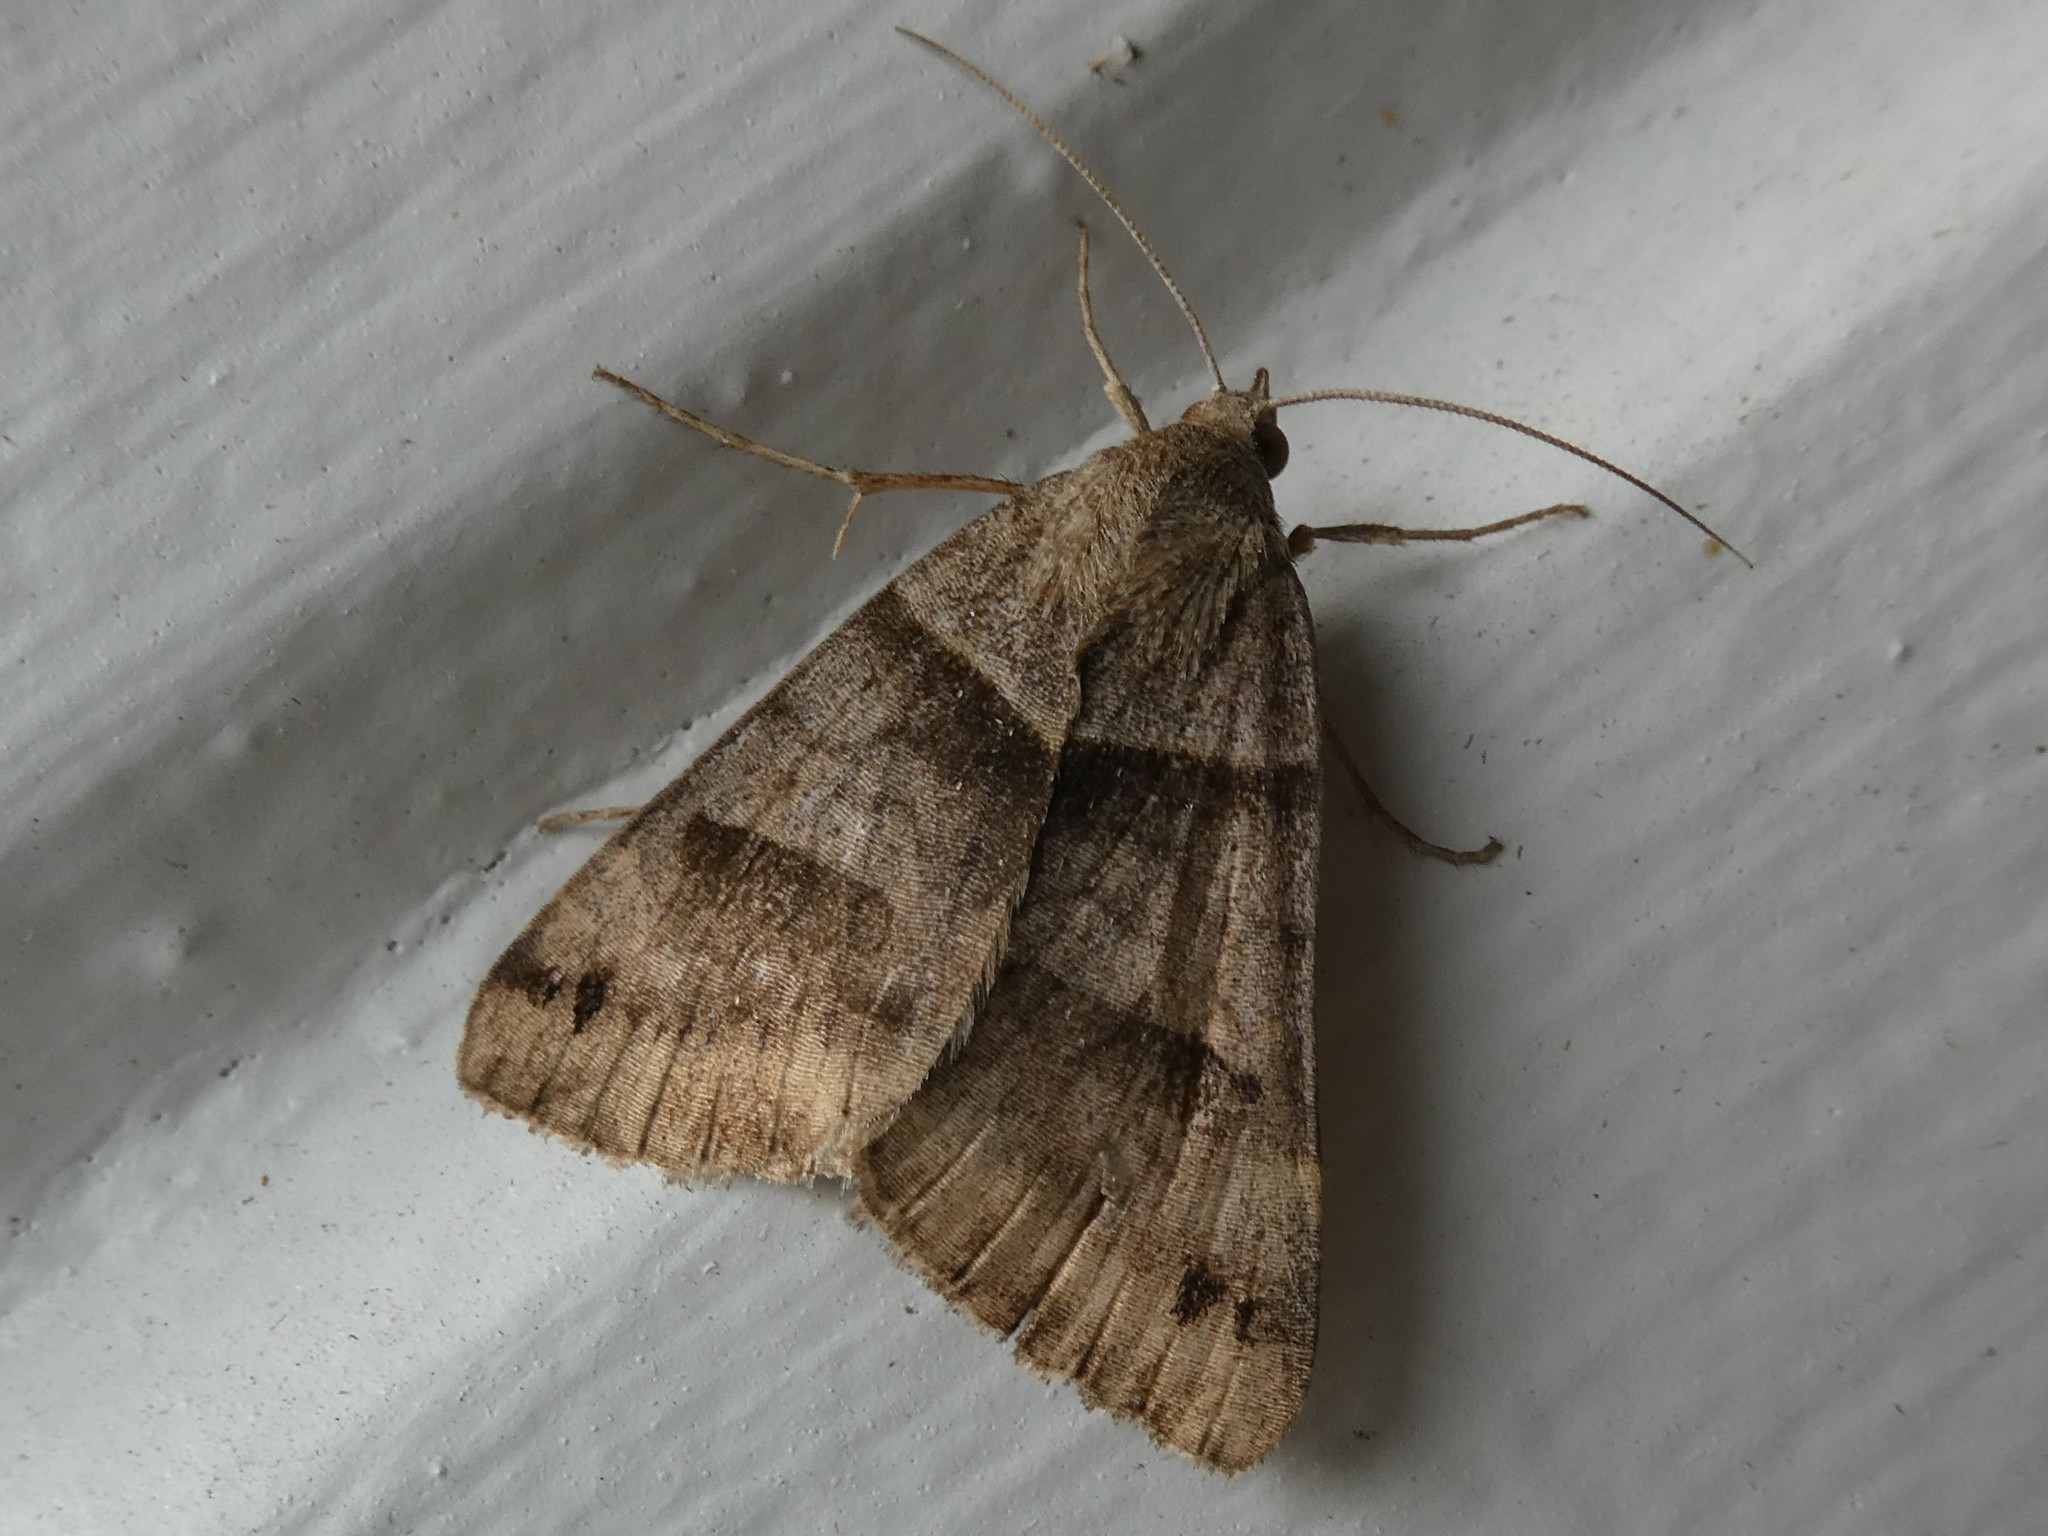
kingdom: Animalia
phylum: Arthropoda
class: Insecta
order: Lepidoptera
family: Erebidae
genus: Caenurgina
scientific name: Caenurgina crassiuscula
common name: Double-barred
